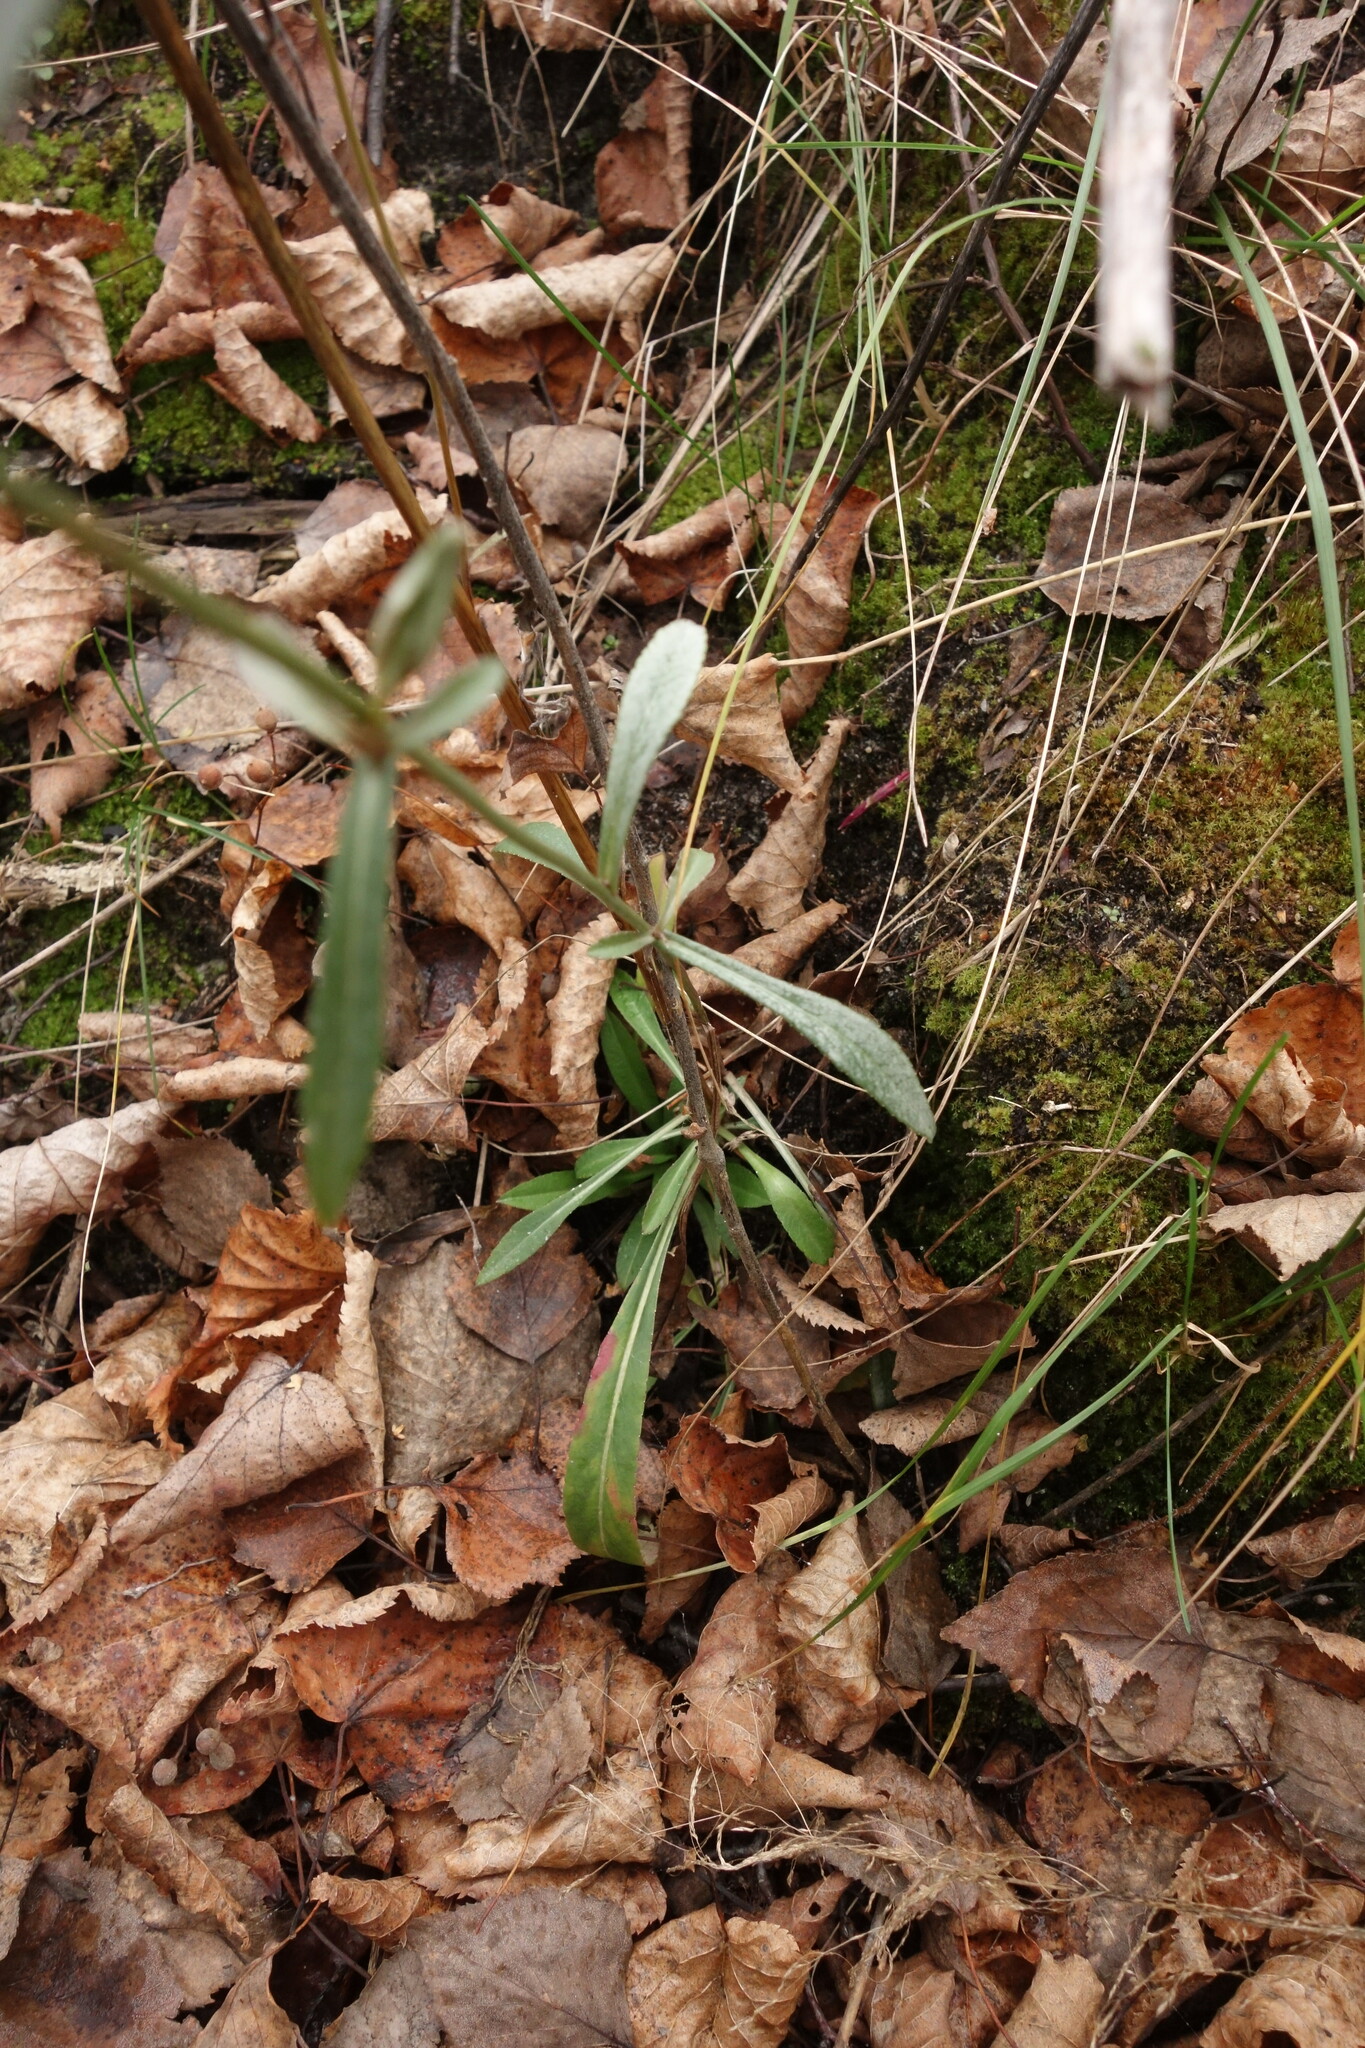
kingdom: Plantae
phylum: Tracheophyta
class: Magnoliopsida
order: Asterales
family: Campanulaceae
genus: Campanula
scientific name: Campanula persicifolia
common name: Peach-leaved bellflower
